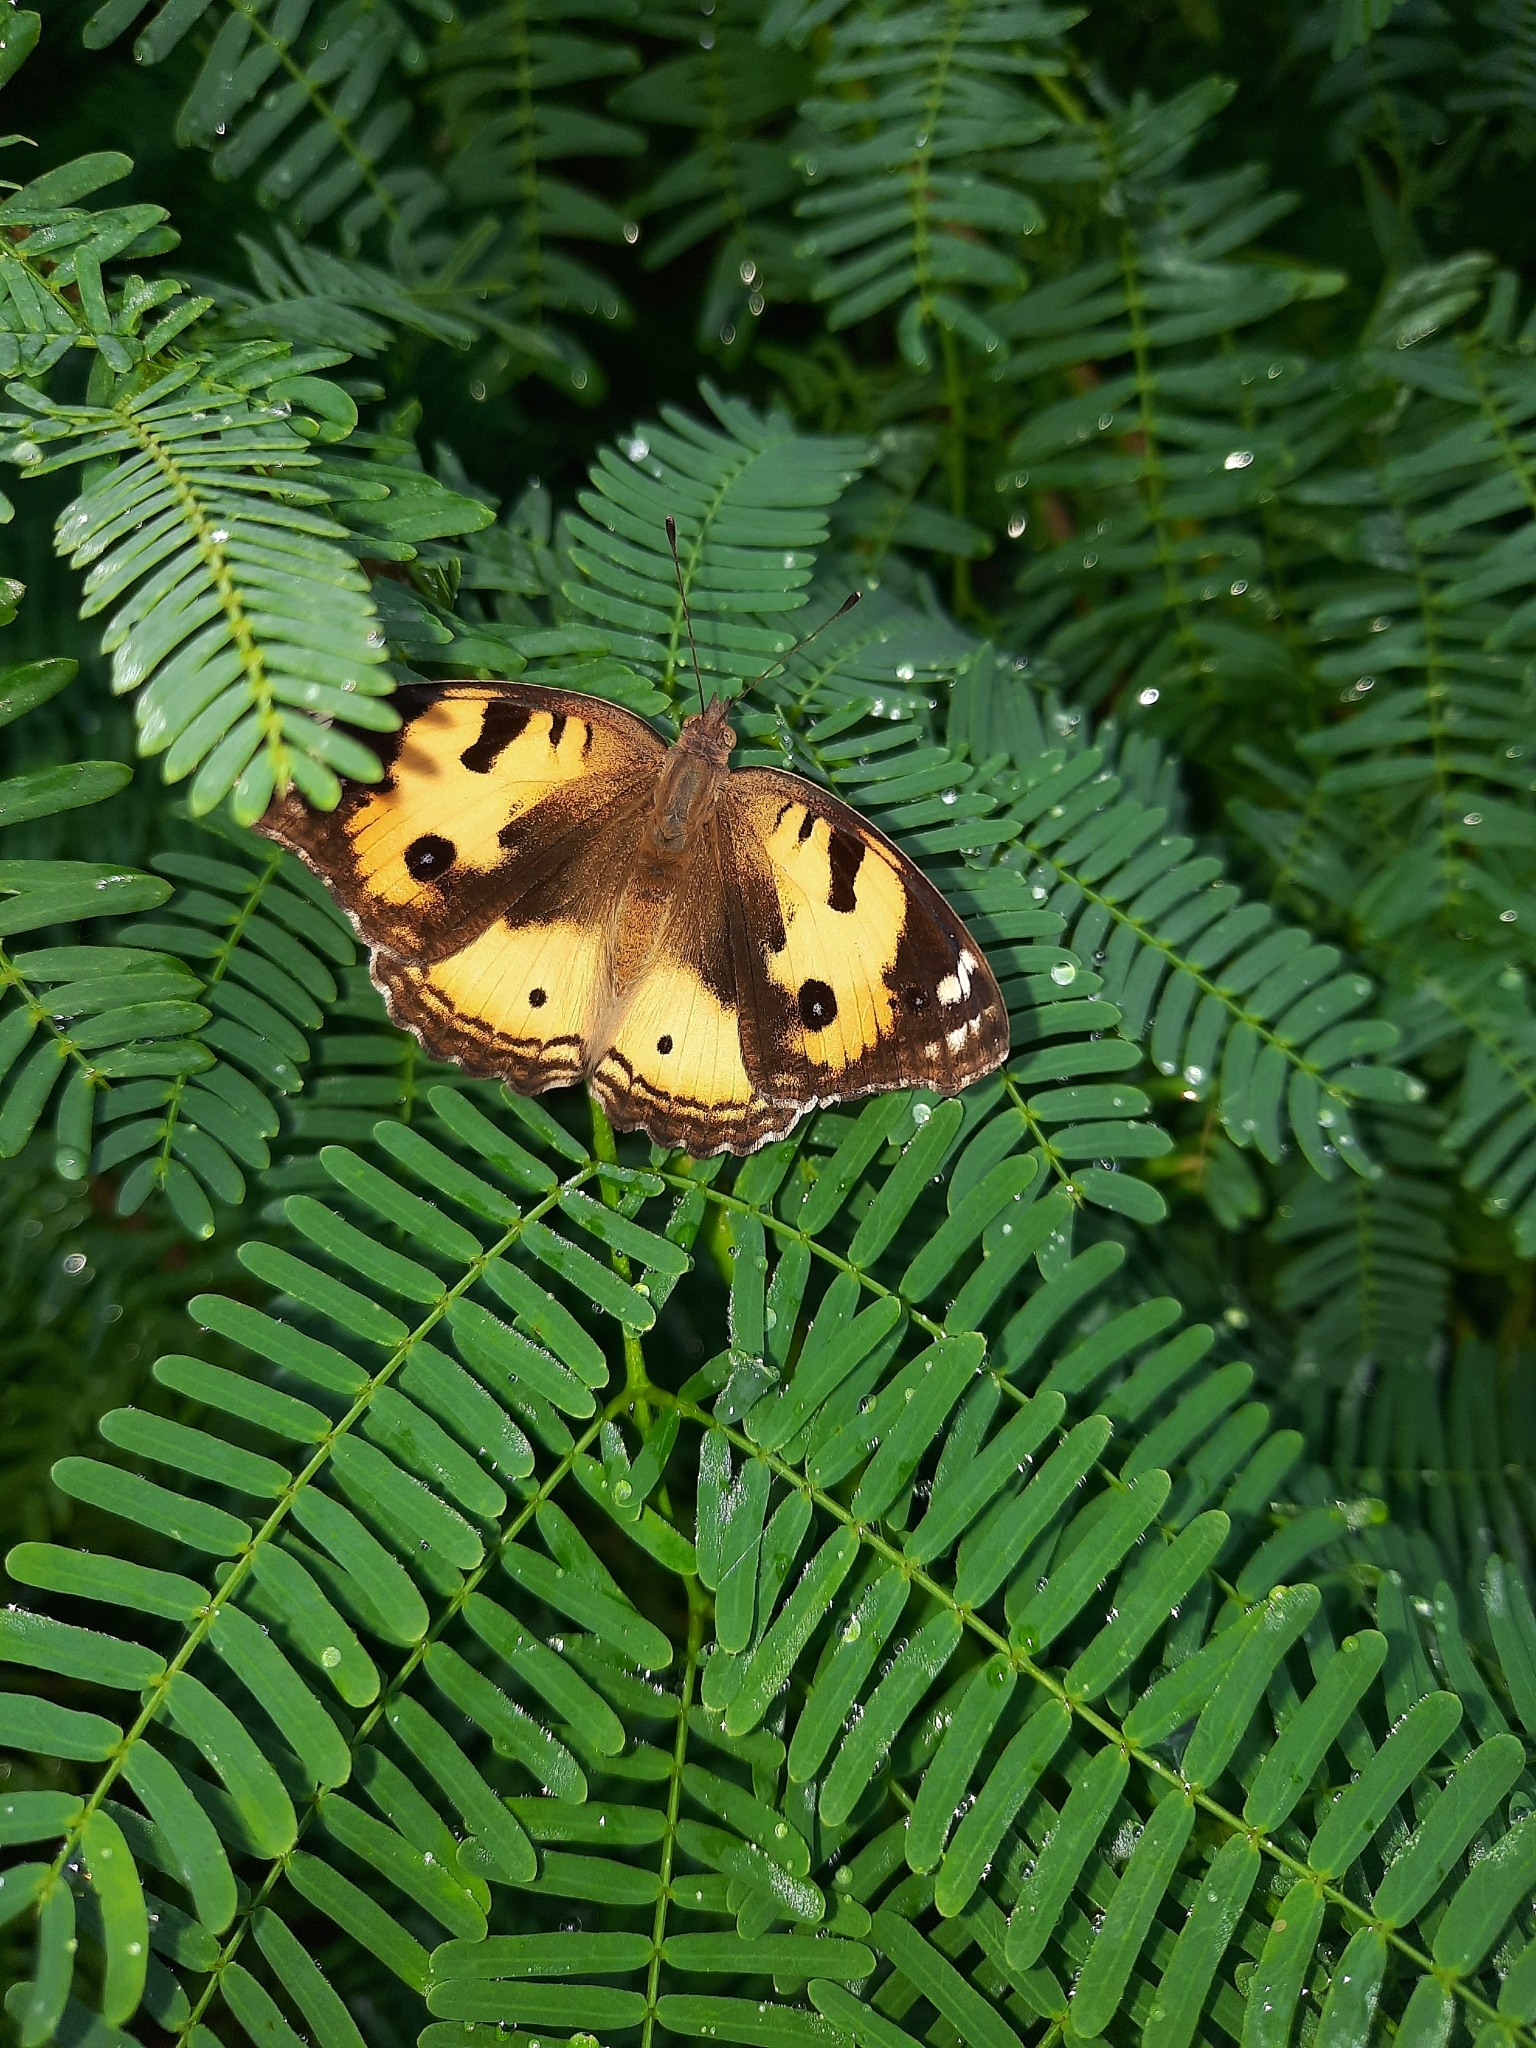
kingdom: Animalia
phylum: Arthropoda
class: Insecta
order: Lepidoptera
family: Nymphalidae
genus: Junonia
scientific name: Junonia hierta
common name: Yellow pansy
